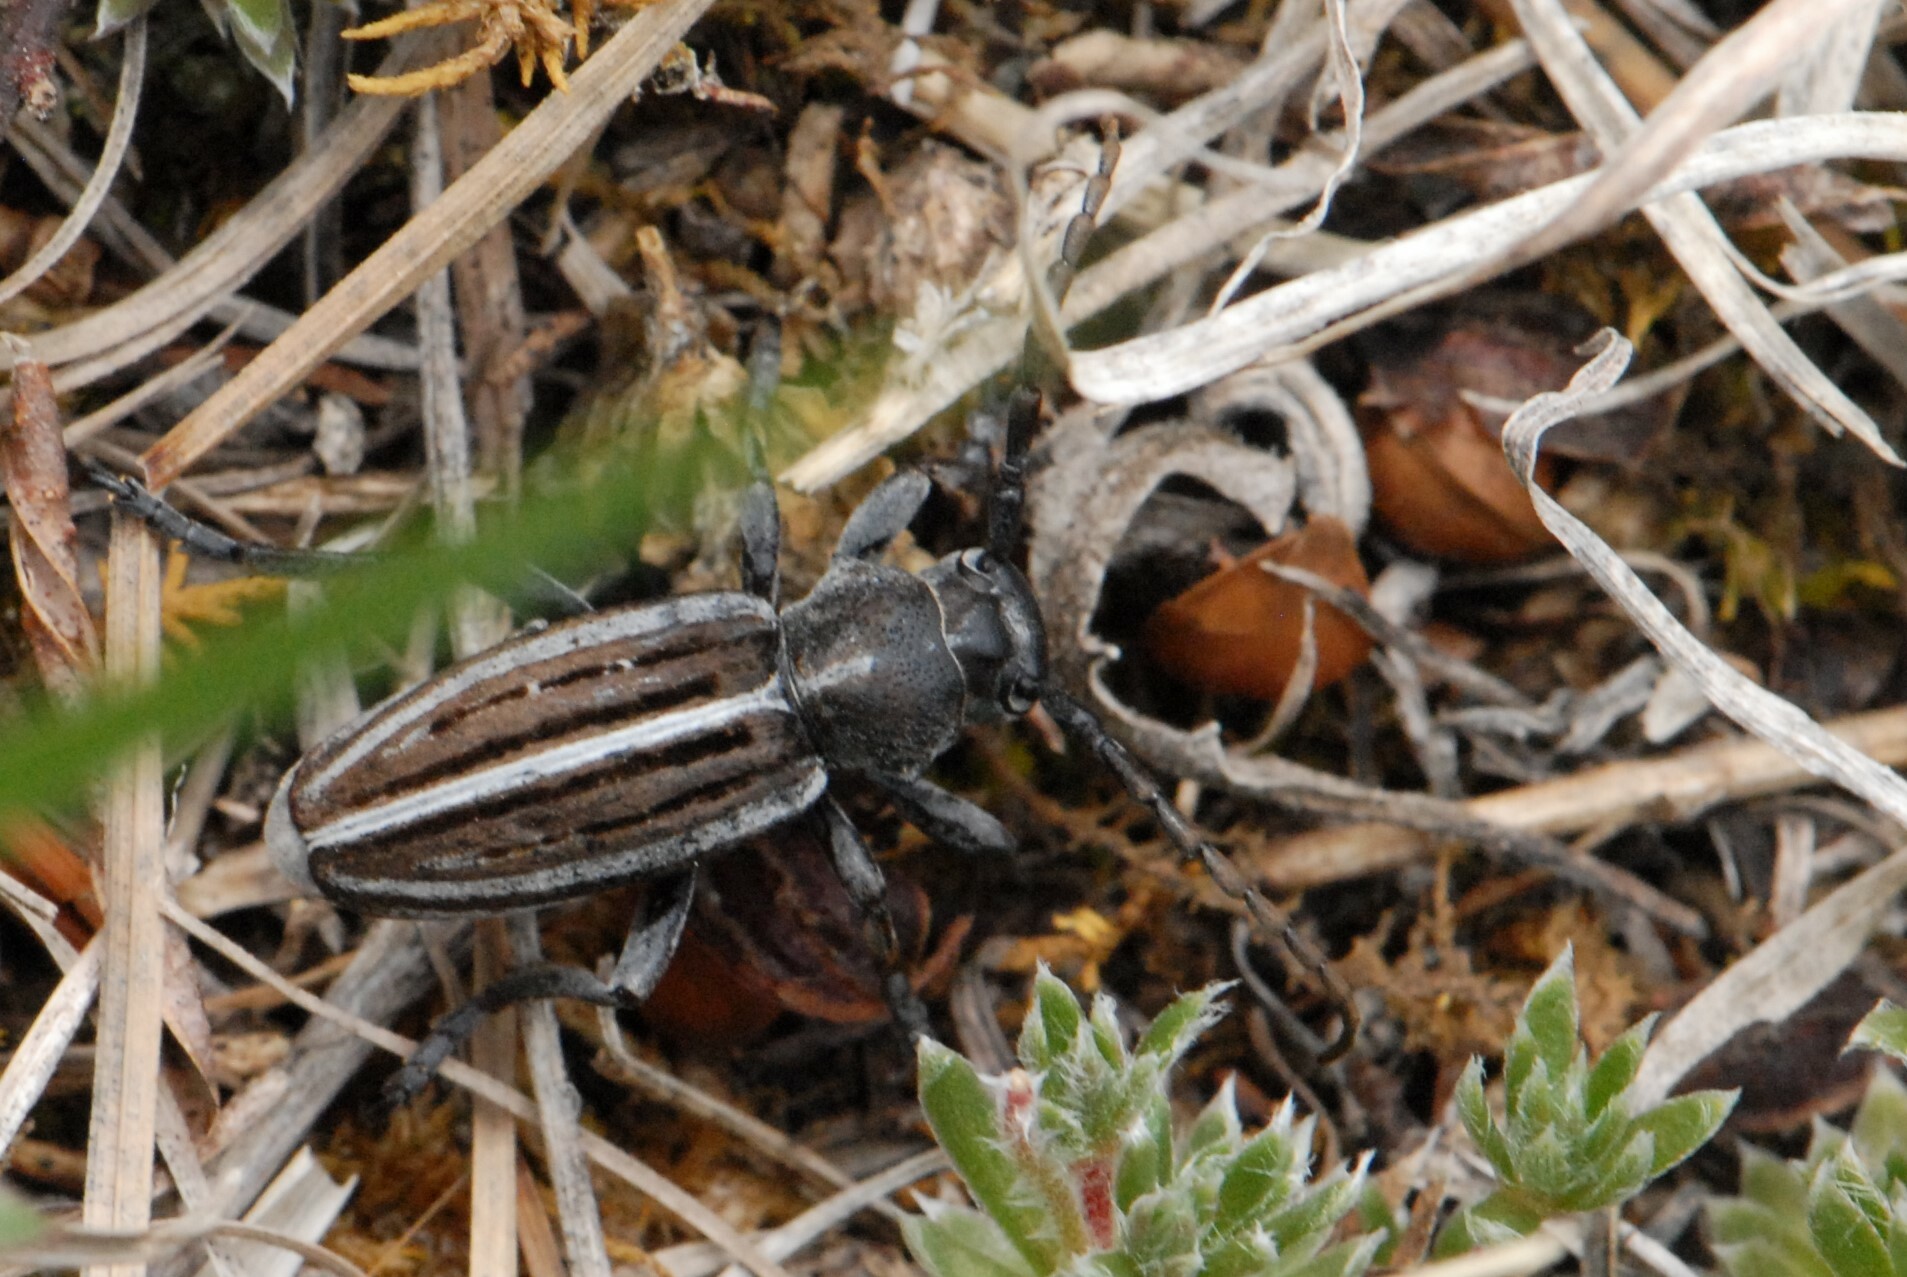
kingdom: Animalia
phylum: Arthropoda
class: Insecta
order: Coleoptera
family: Cerambycidae
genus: Dorcadion
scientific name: Dorcadion holosericeum
